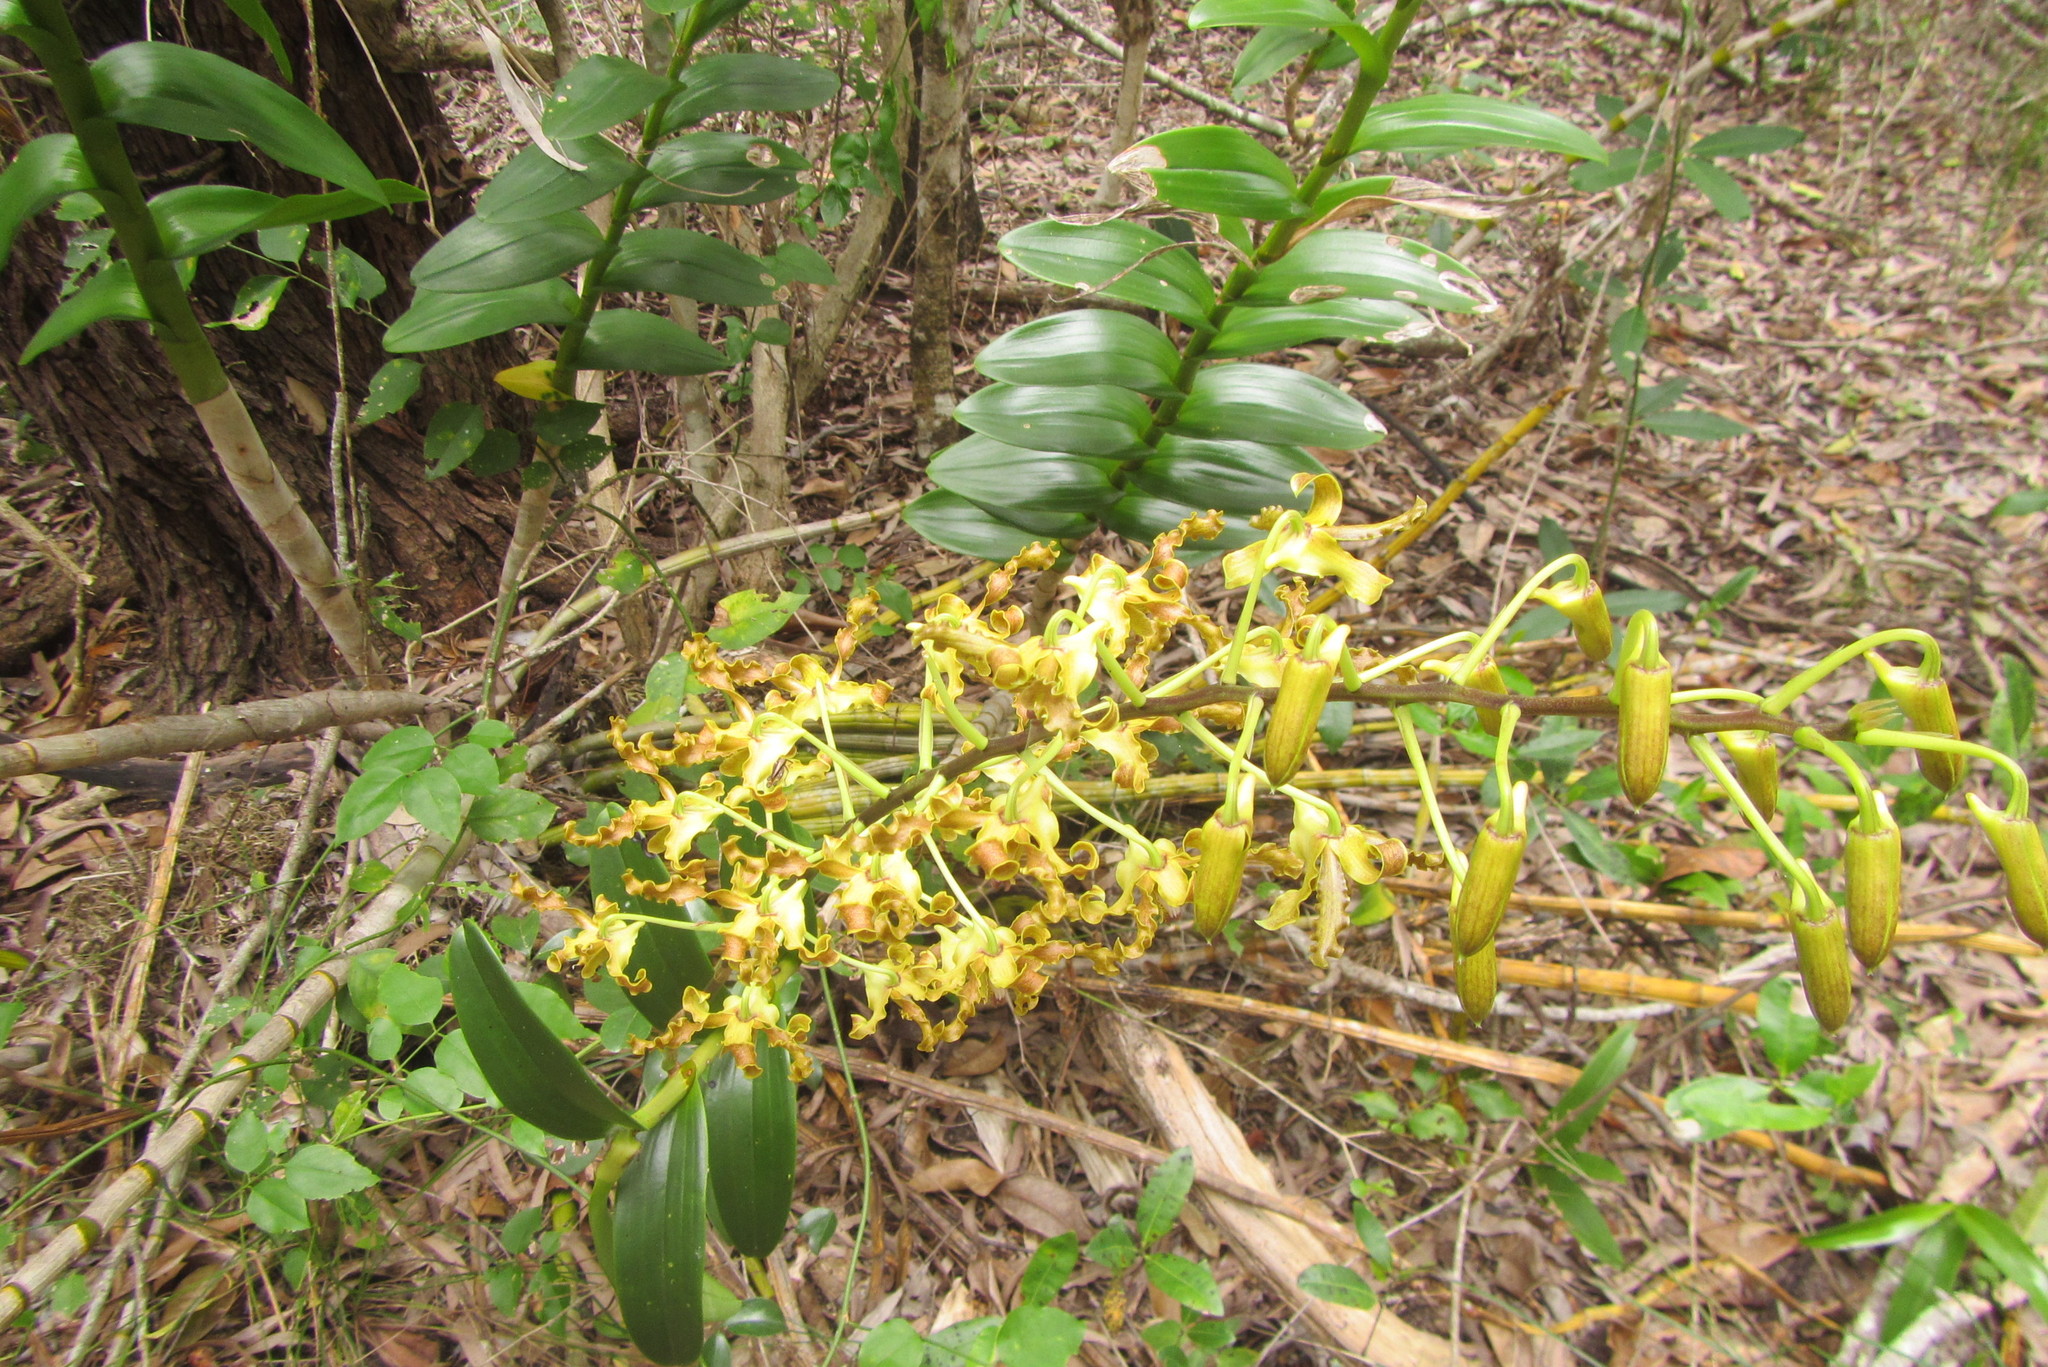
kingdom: Plantae
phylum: Tracheophyta
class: Liliopsida
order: Asparagales
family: Orchidaceae
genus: Dendrobium
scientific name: Dendrobium discolor
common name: Golden antler orchid
